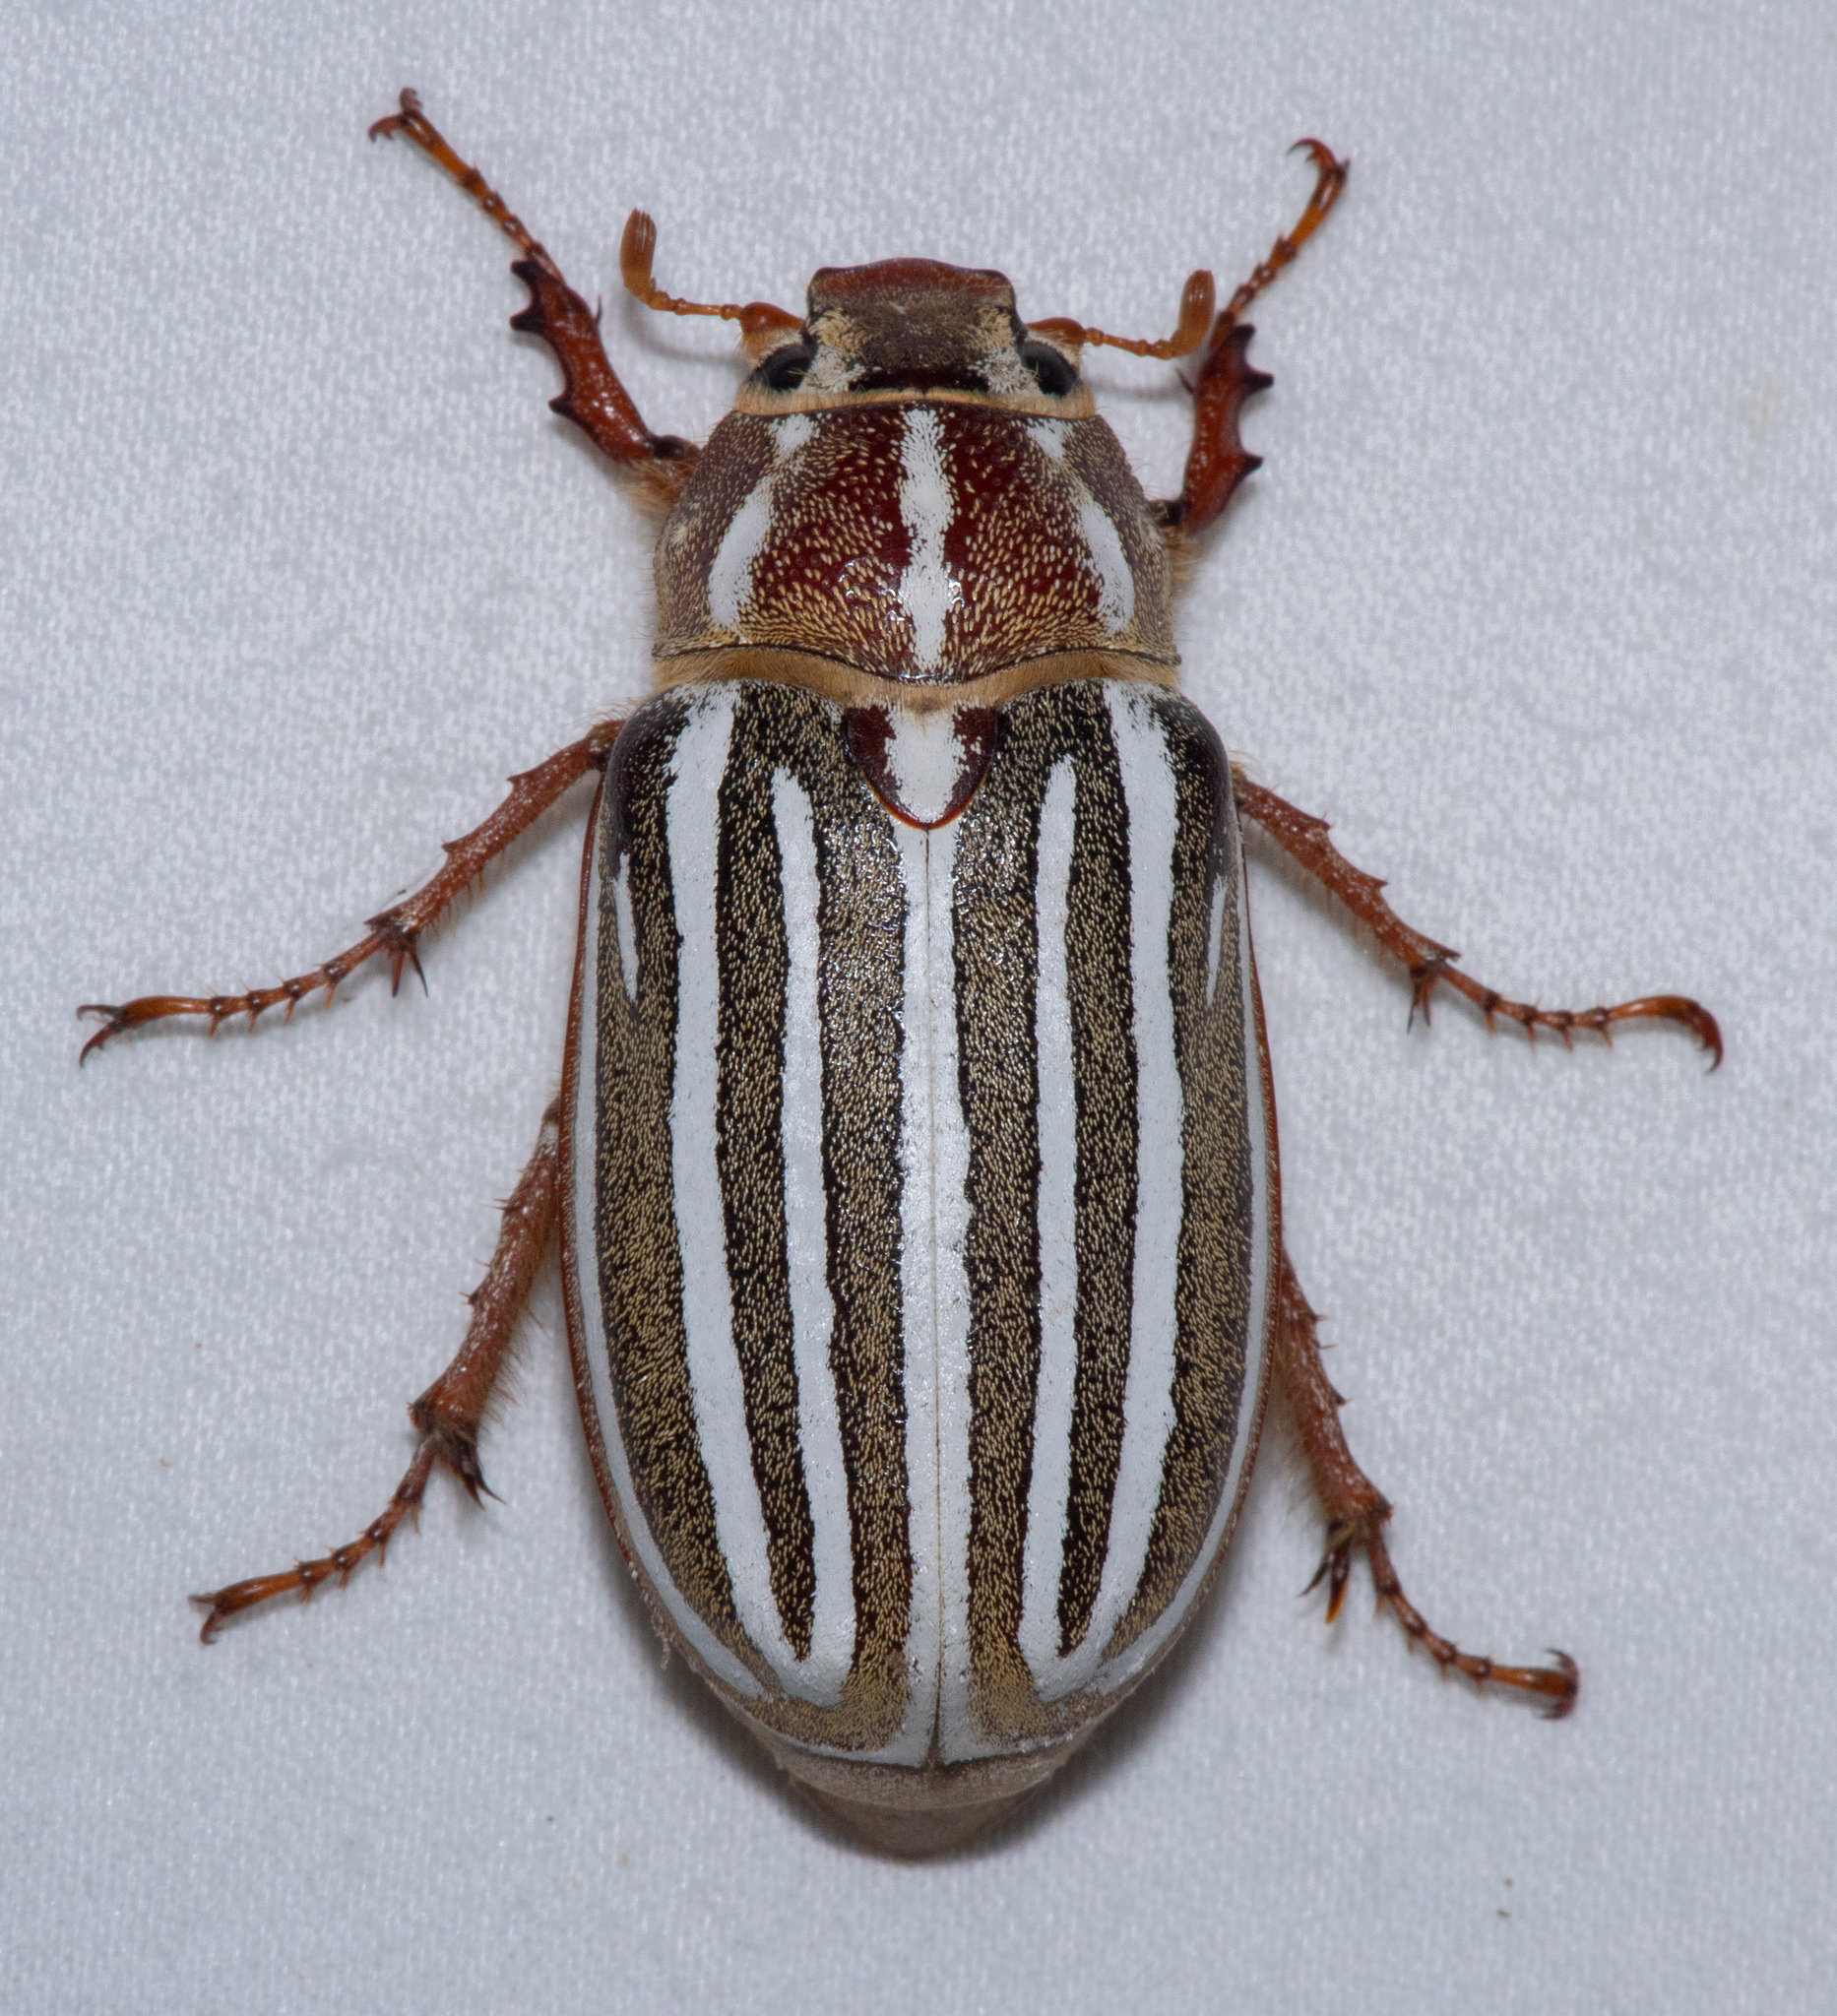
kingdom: Animalia
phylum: Arthropoda
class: Insecta
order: Coleoptera
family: Scarabaeidae
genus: Polyphylla
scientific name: Polyphylla decemlineata
